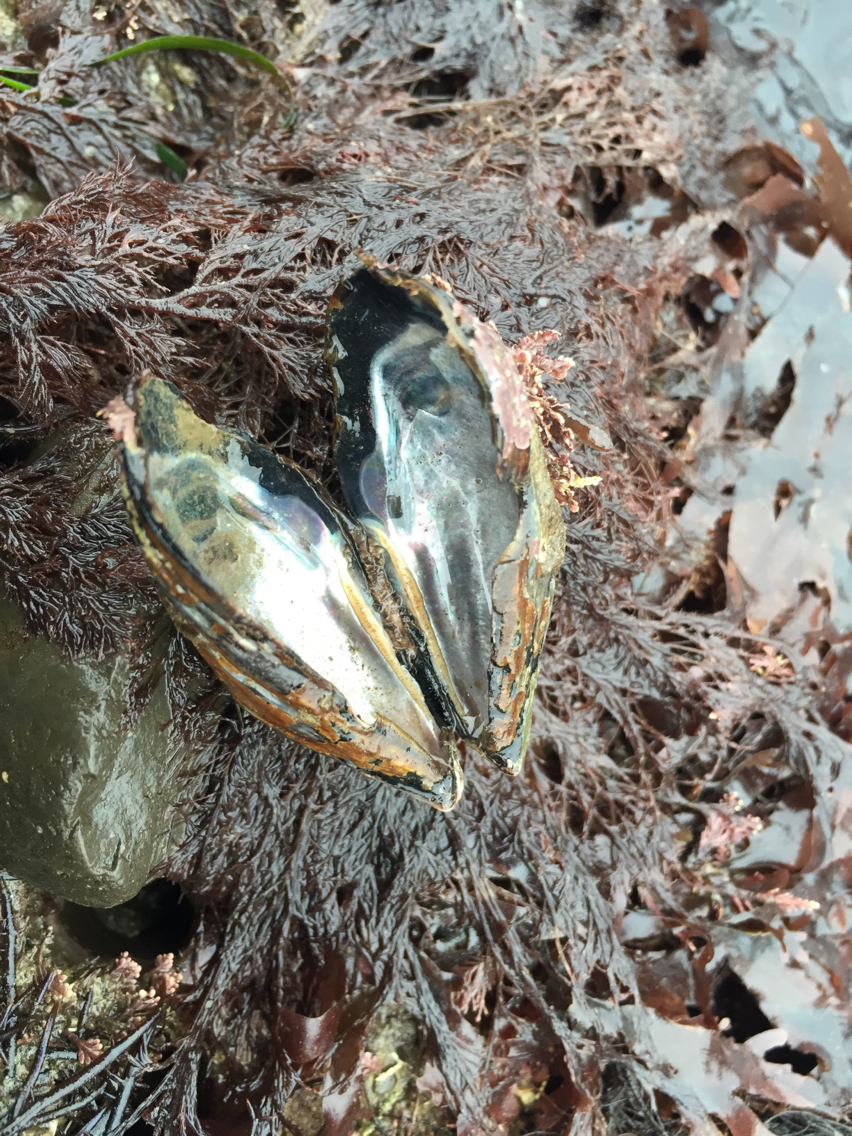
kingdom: Animalia
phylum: Mollusca
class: Bivalvia
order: Mytilida
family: Mytilidae
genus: Mytilus
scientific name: Mytilus californianus
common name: California mussel
